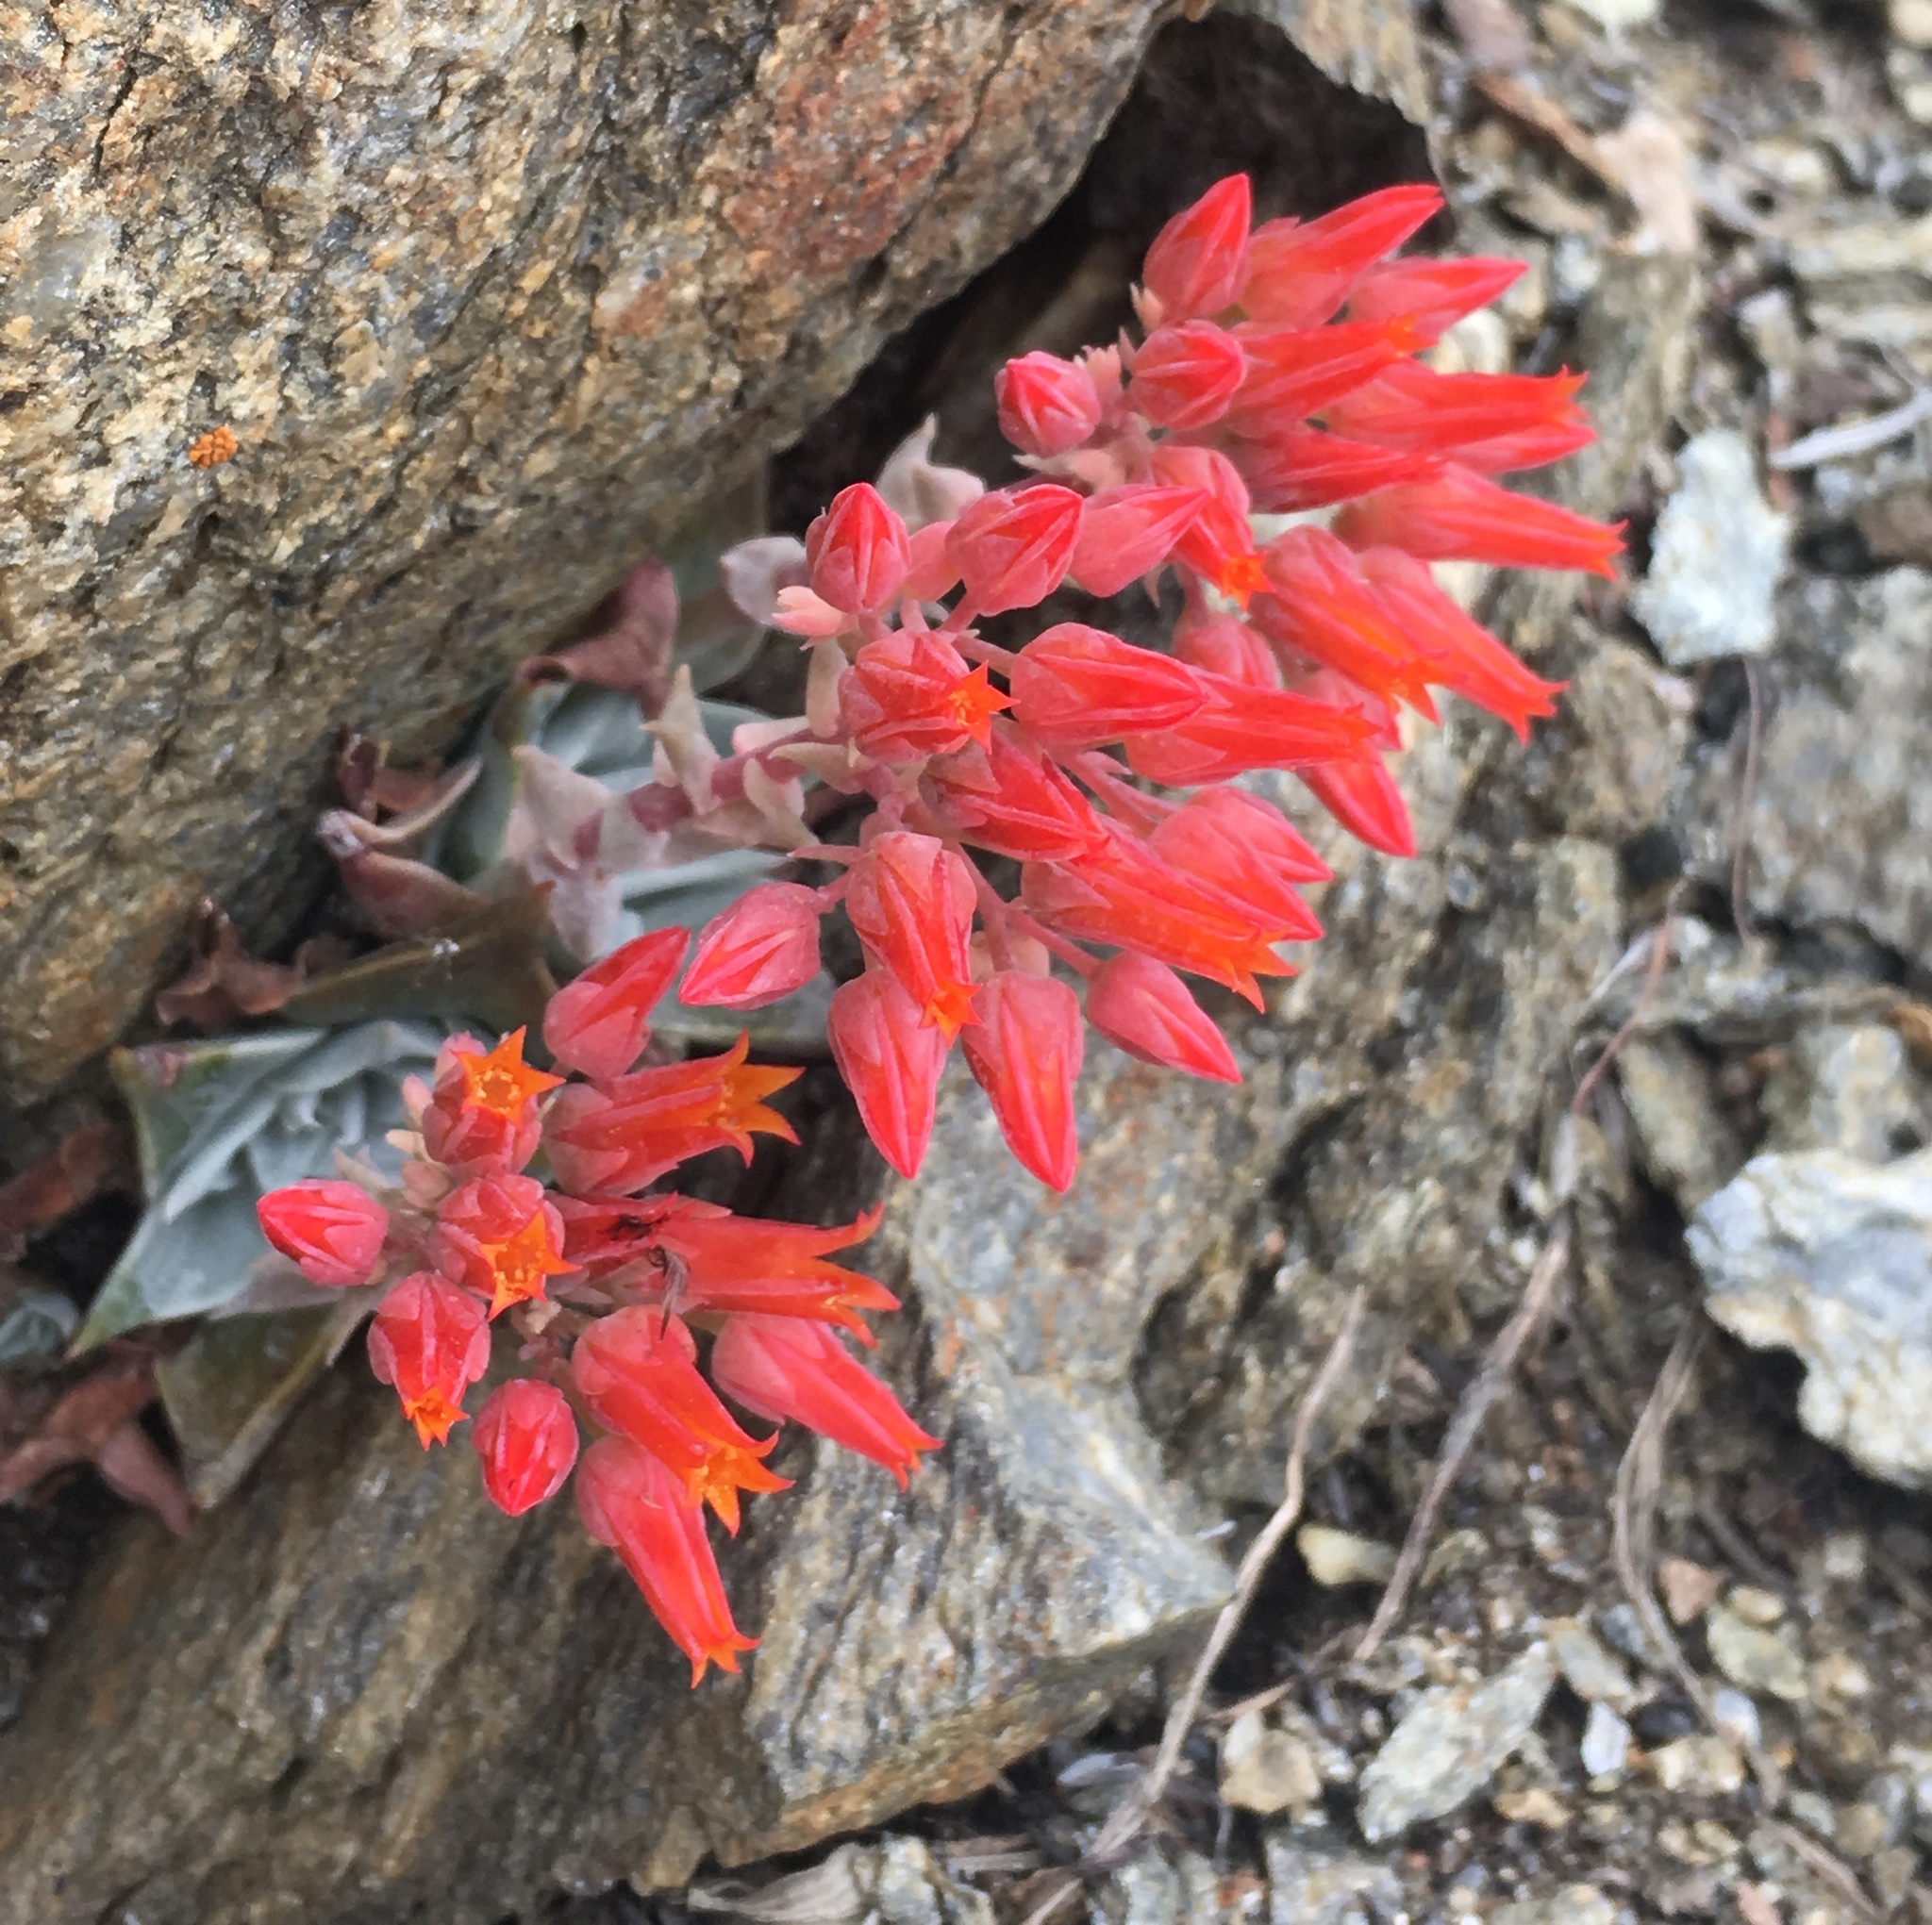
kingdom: Plantae
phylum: Tracheophyta
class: Magnoliopsida
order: Saxifragales
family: Crassulaceae
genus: Dudleya
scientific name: Dudleya cymosa
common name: Canyon dudleya
